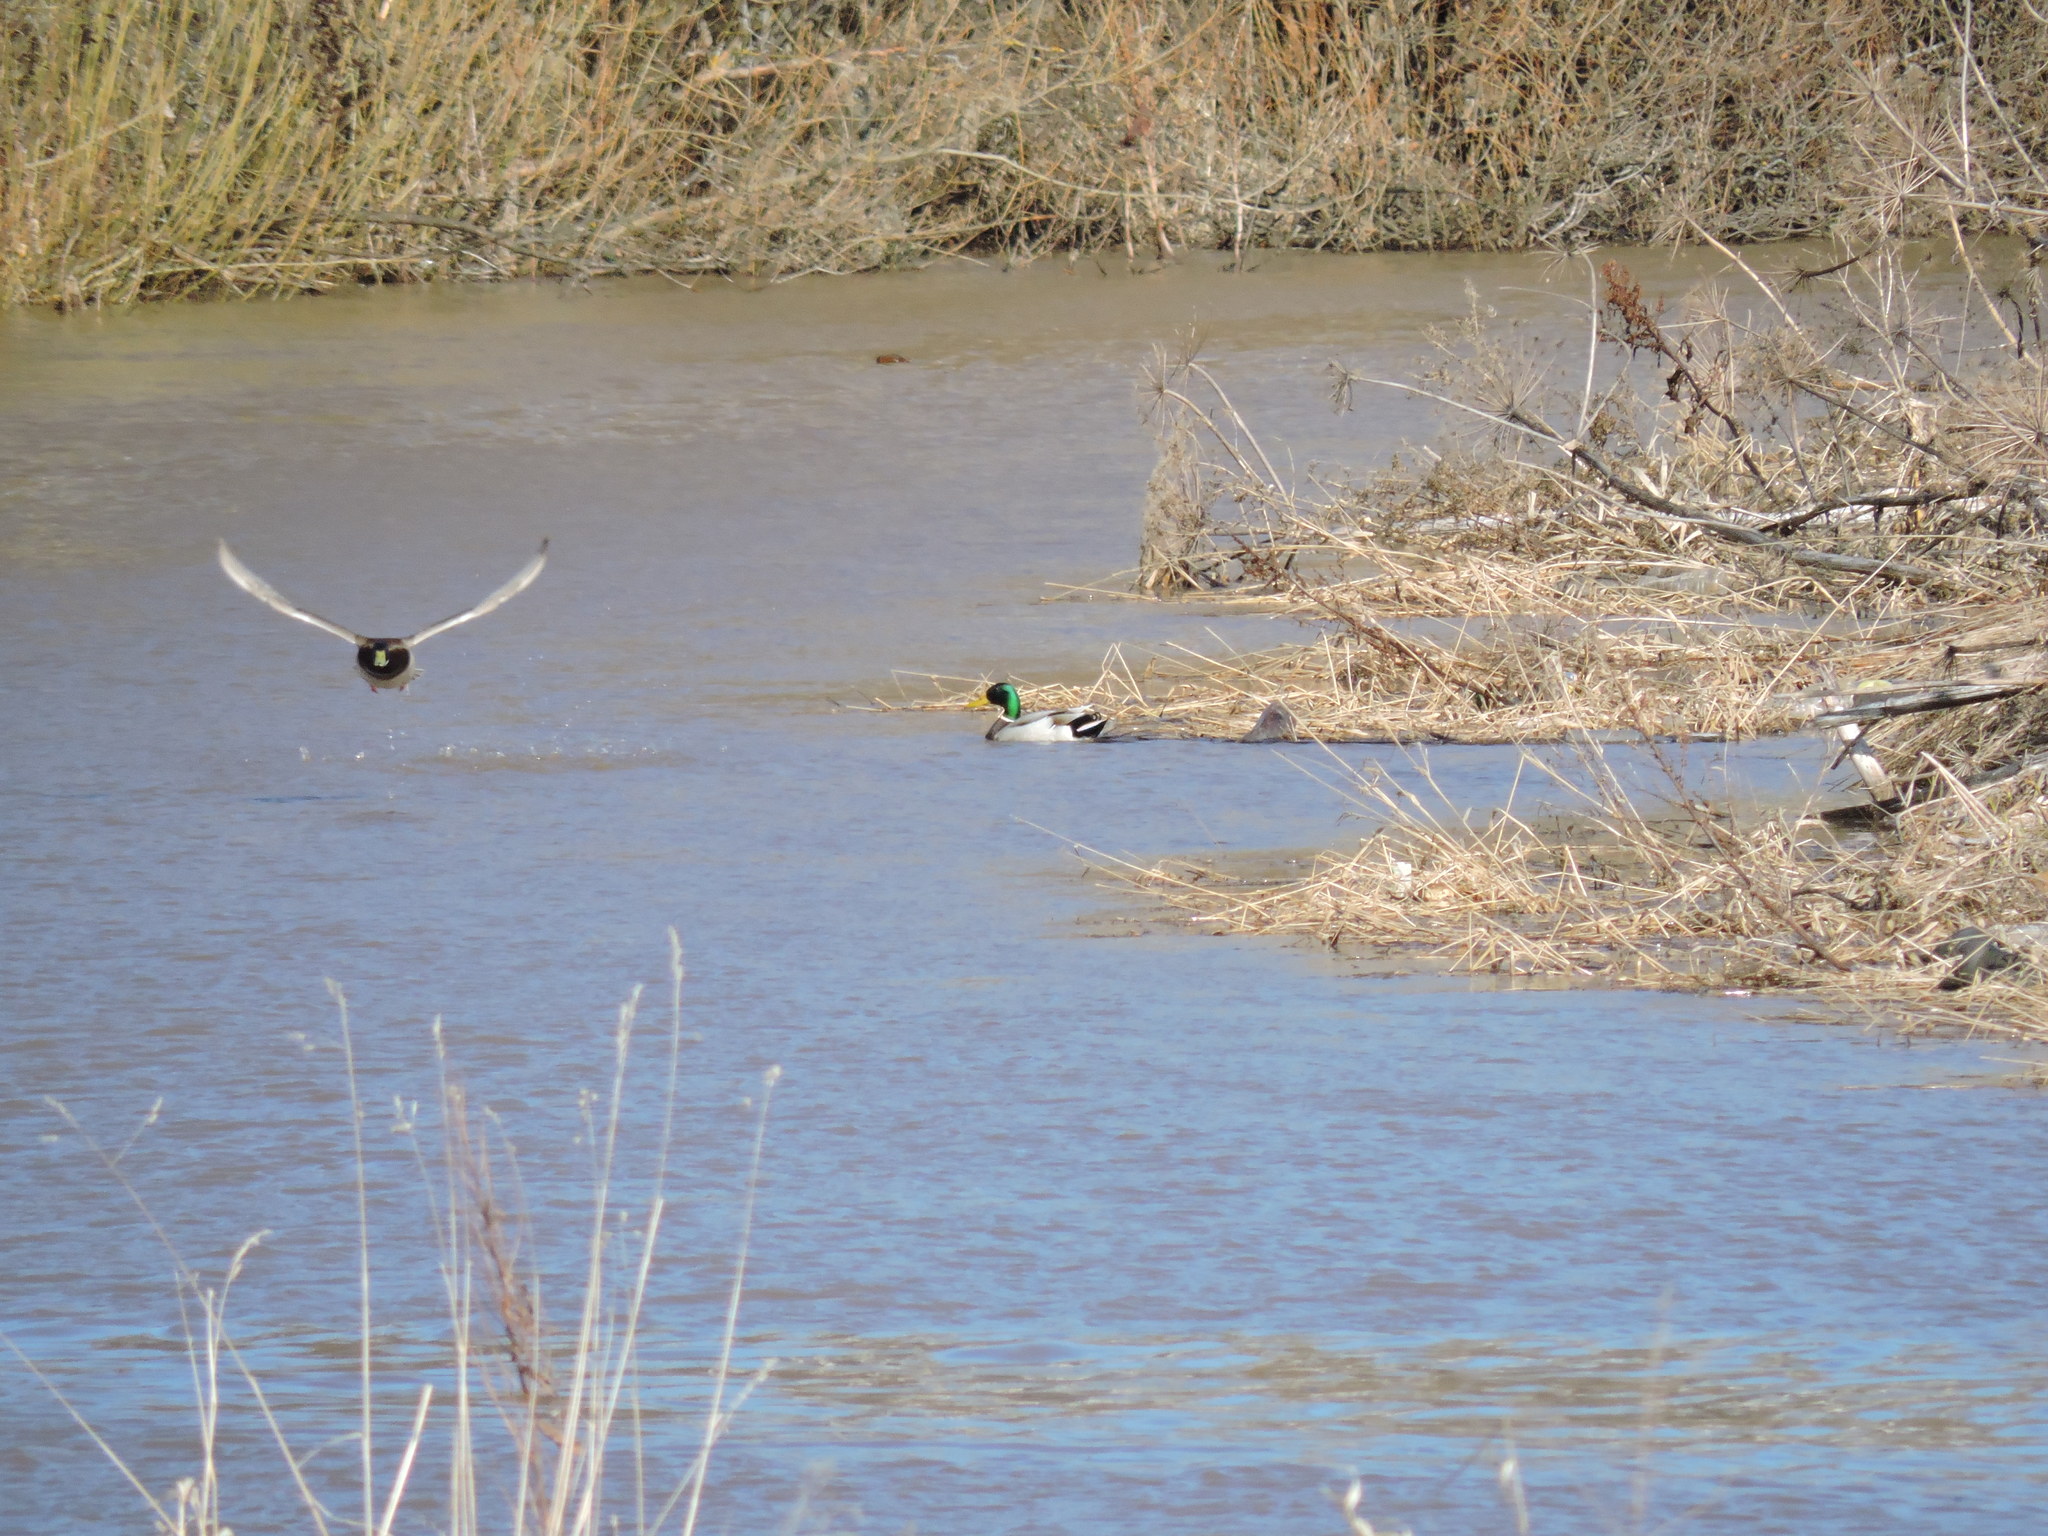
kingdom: Animalia
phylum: Chordata
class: Aves
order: Anseriformes
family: Anatidae
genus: Anas
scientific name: Anas platyrhynchos
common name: Mallard
